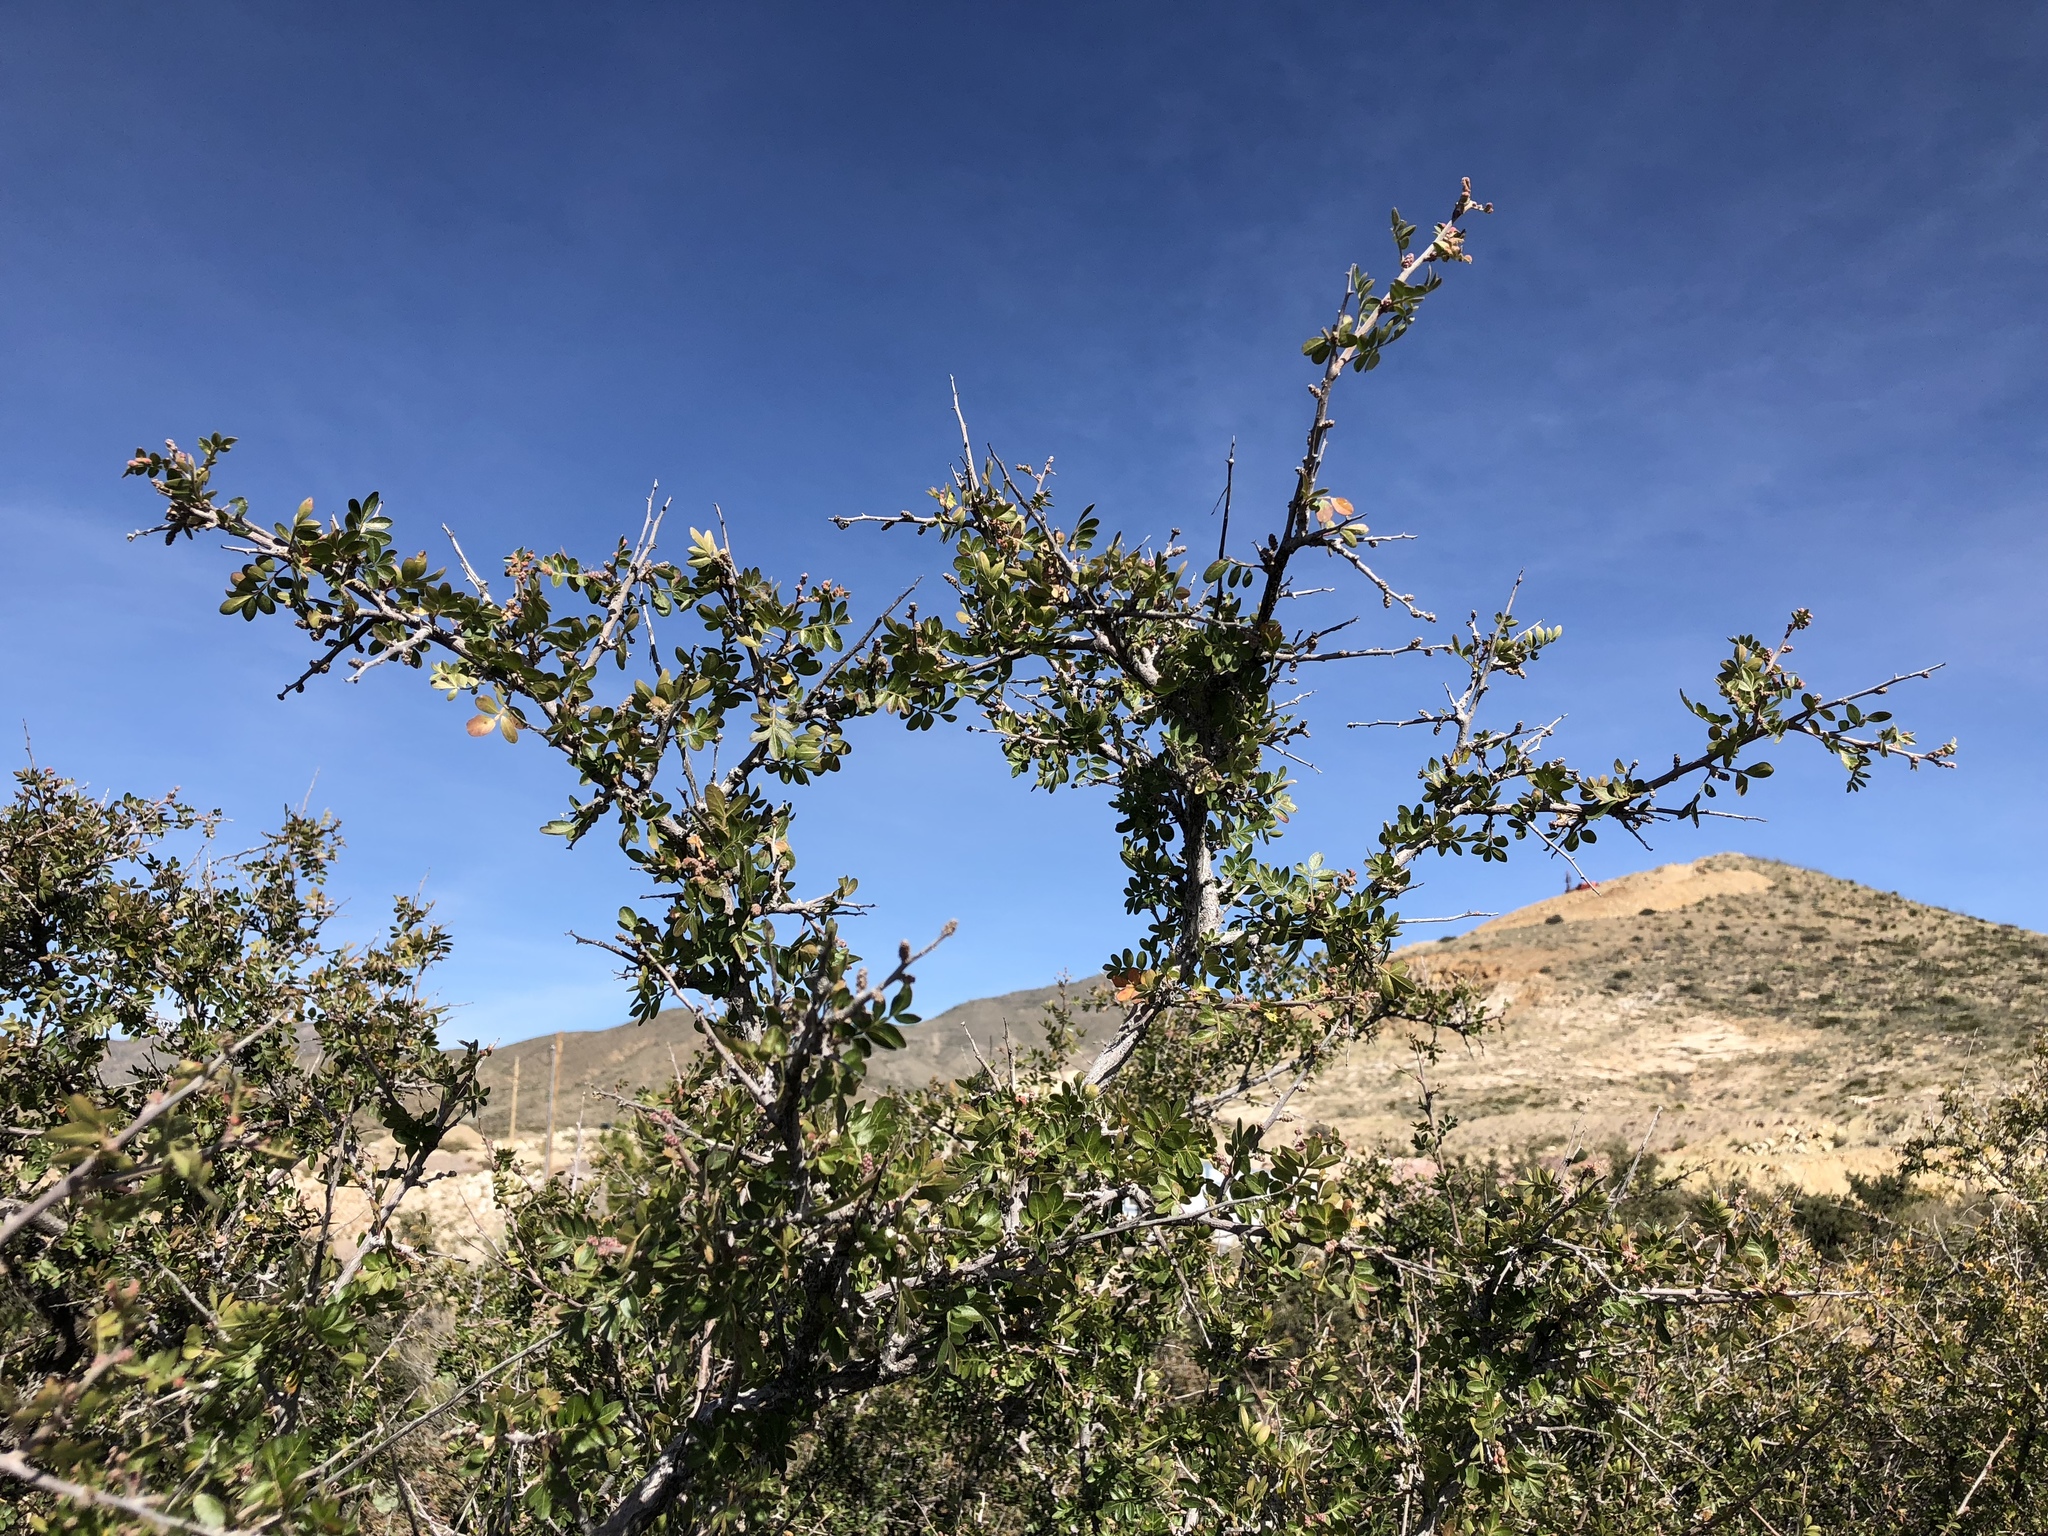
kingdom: Plantae
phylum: Tracheophyta
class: Magnoliopsida
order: Sapindales
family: Anacardiaceae
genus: Rhus
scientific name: Rhus microphylla
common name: Desert sumac
